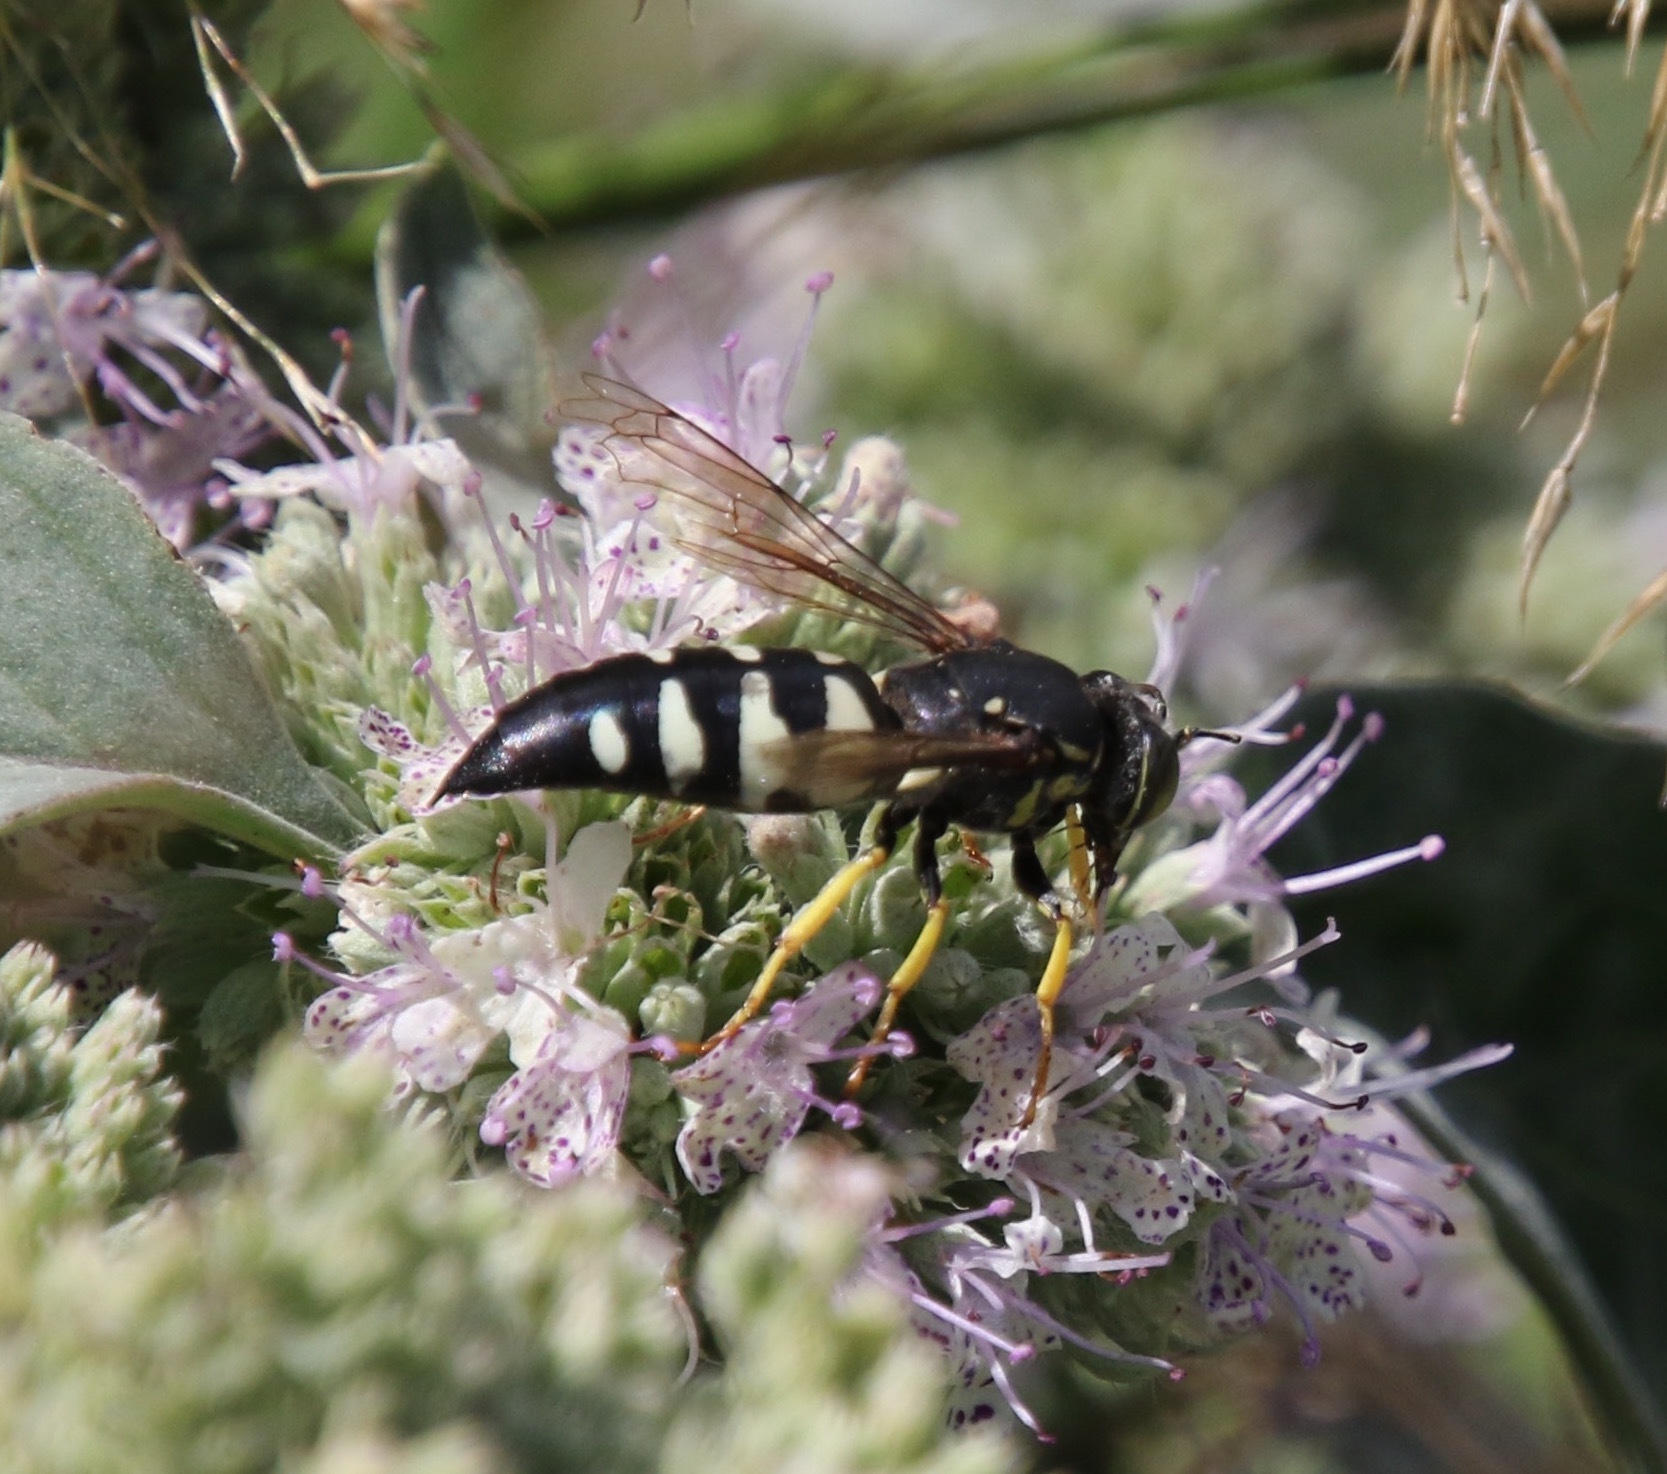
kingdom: Animalia
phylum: Arthropoda
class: Insecta
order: Hymenoptera
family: Crabronidae
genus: Bicyrtes
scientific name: Bicyrtes quadrifasciatus
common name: Four-banded stink bug hunter wasp
